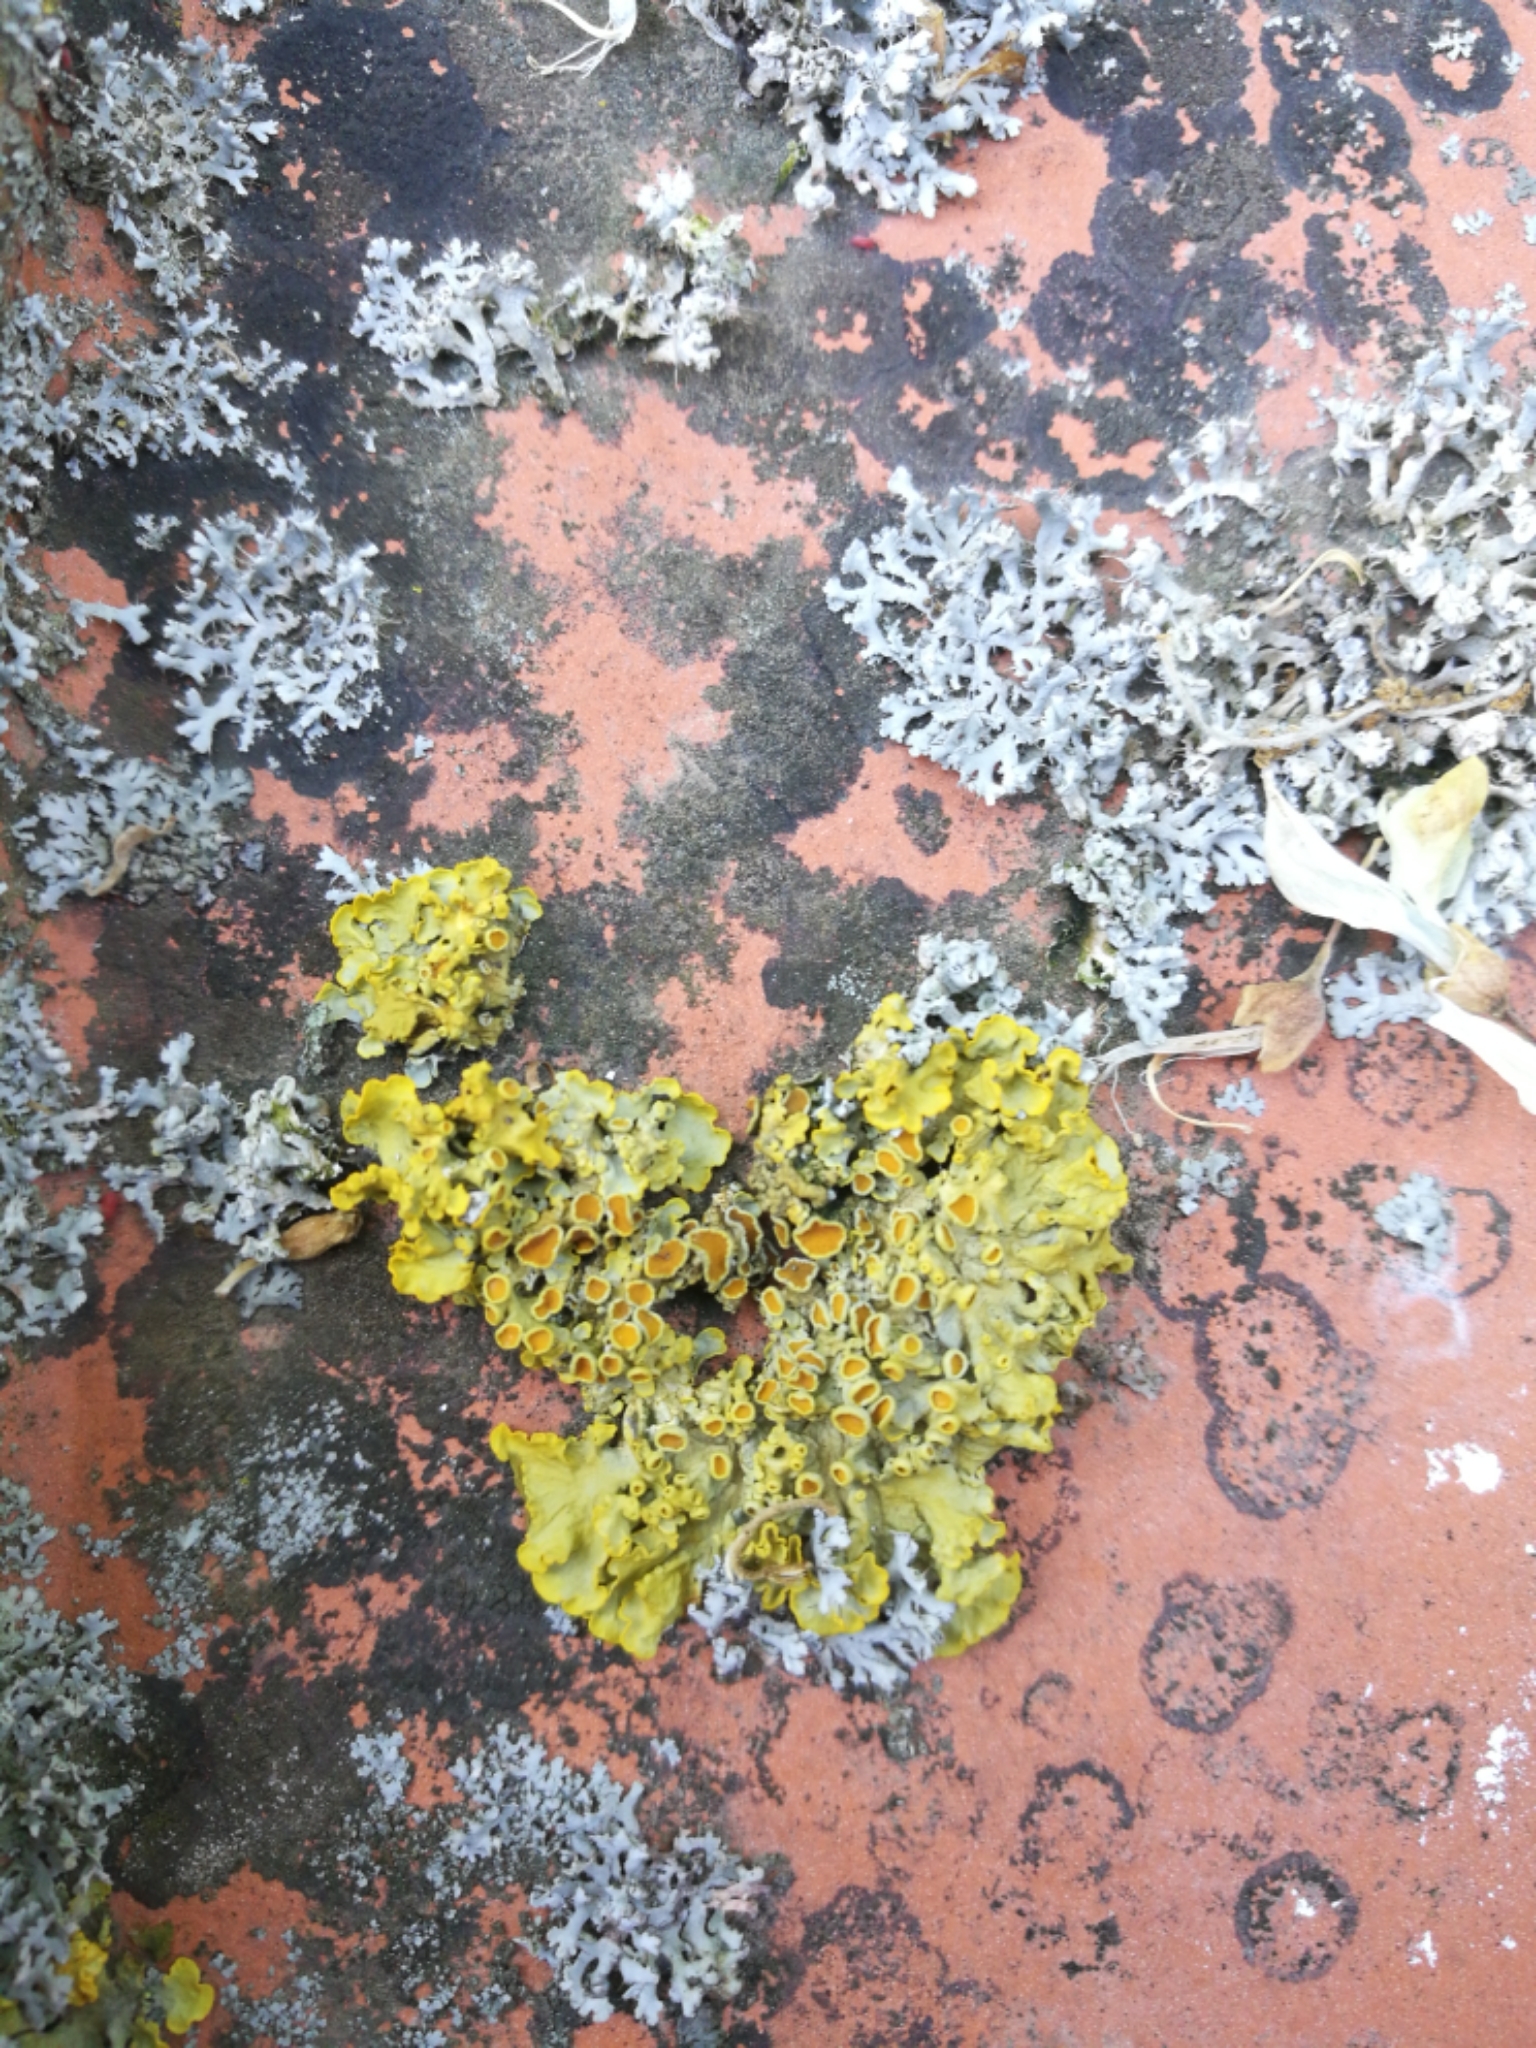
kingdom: Fungi
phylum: Ascomycota
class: Lecanoromycetes
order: Teloschistales
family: Teloschistaceae
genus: Xanthoria
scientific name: Xanthoria parietina
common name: Common orange lichen
